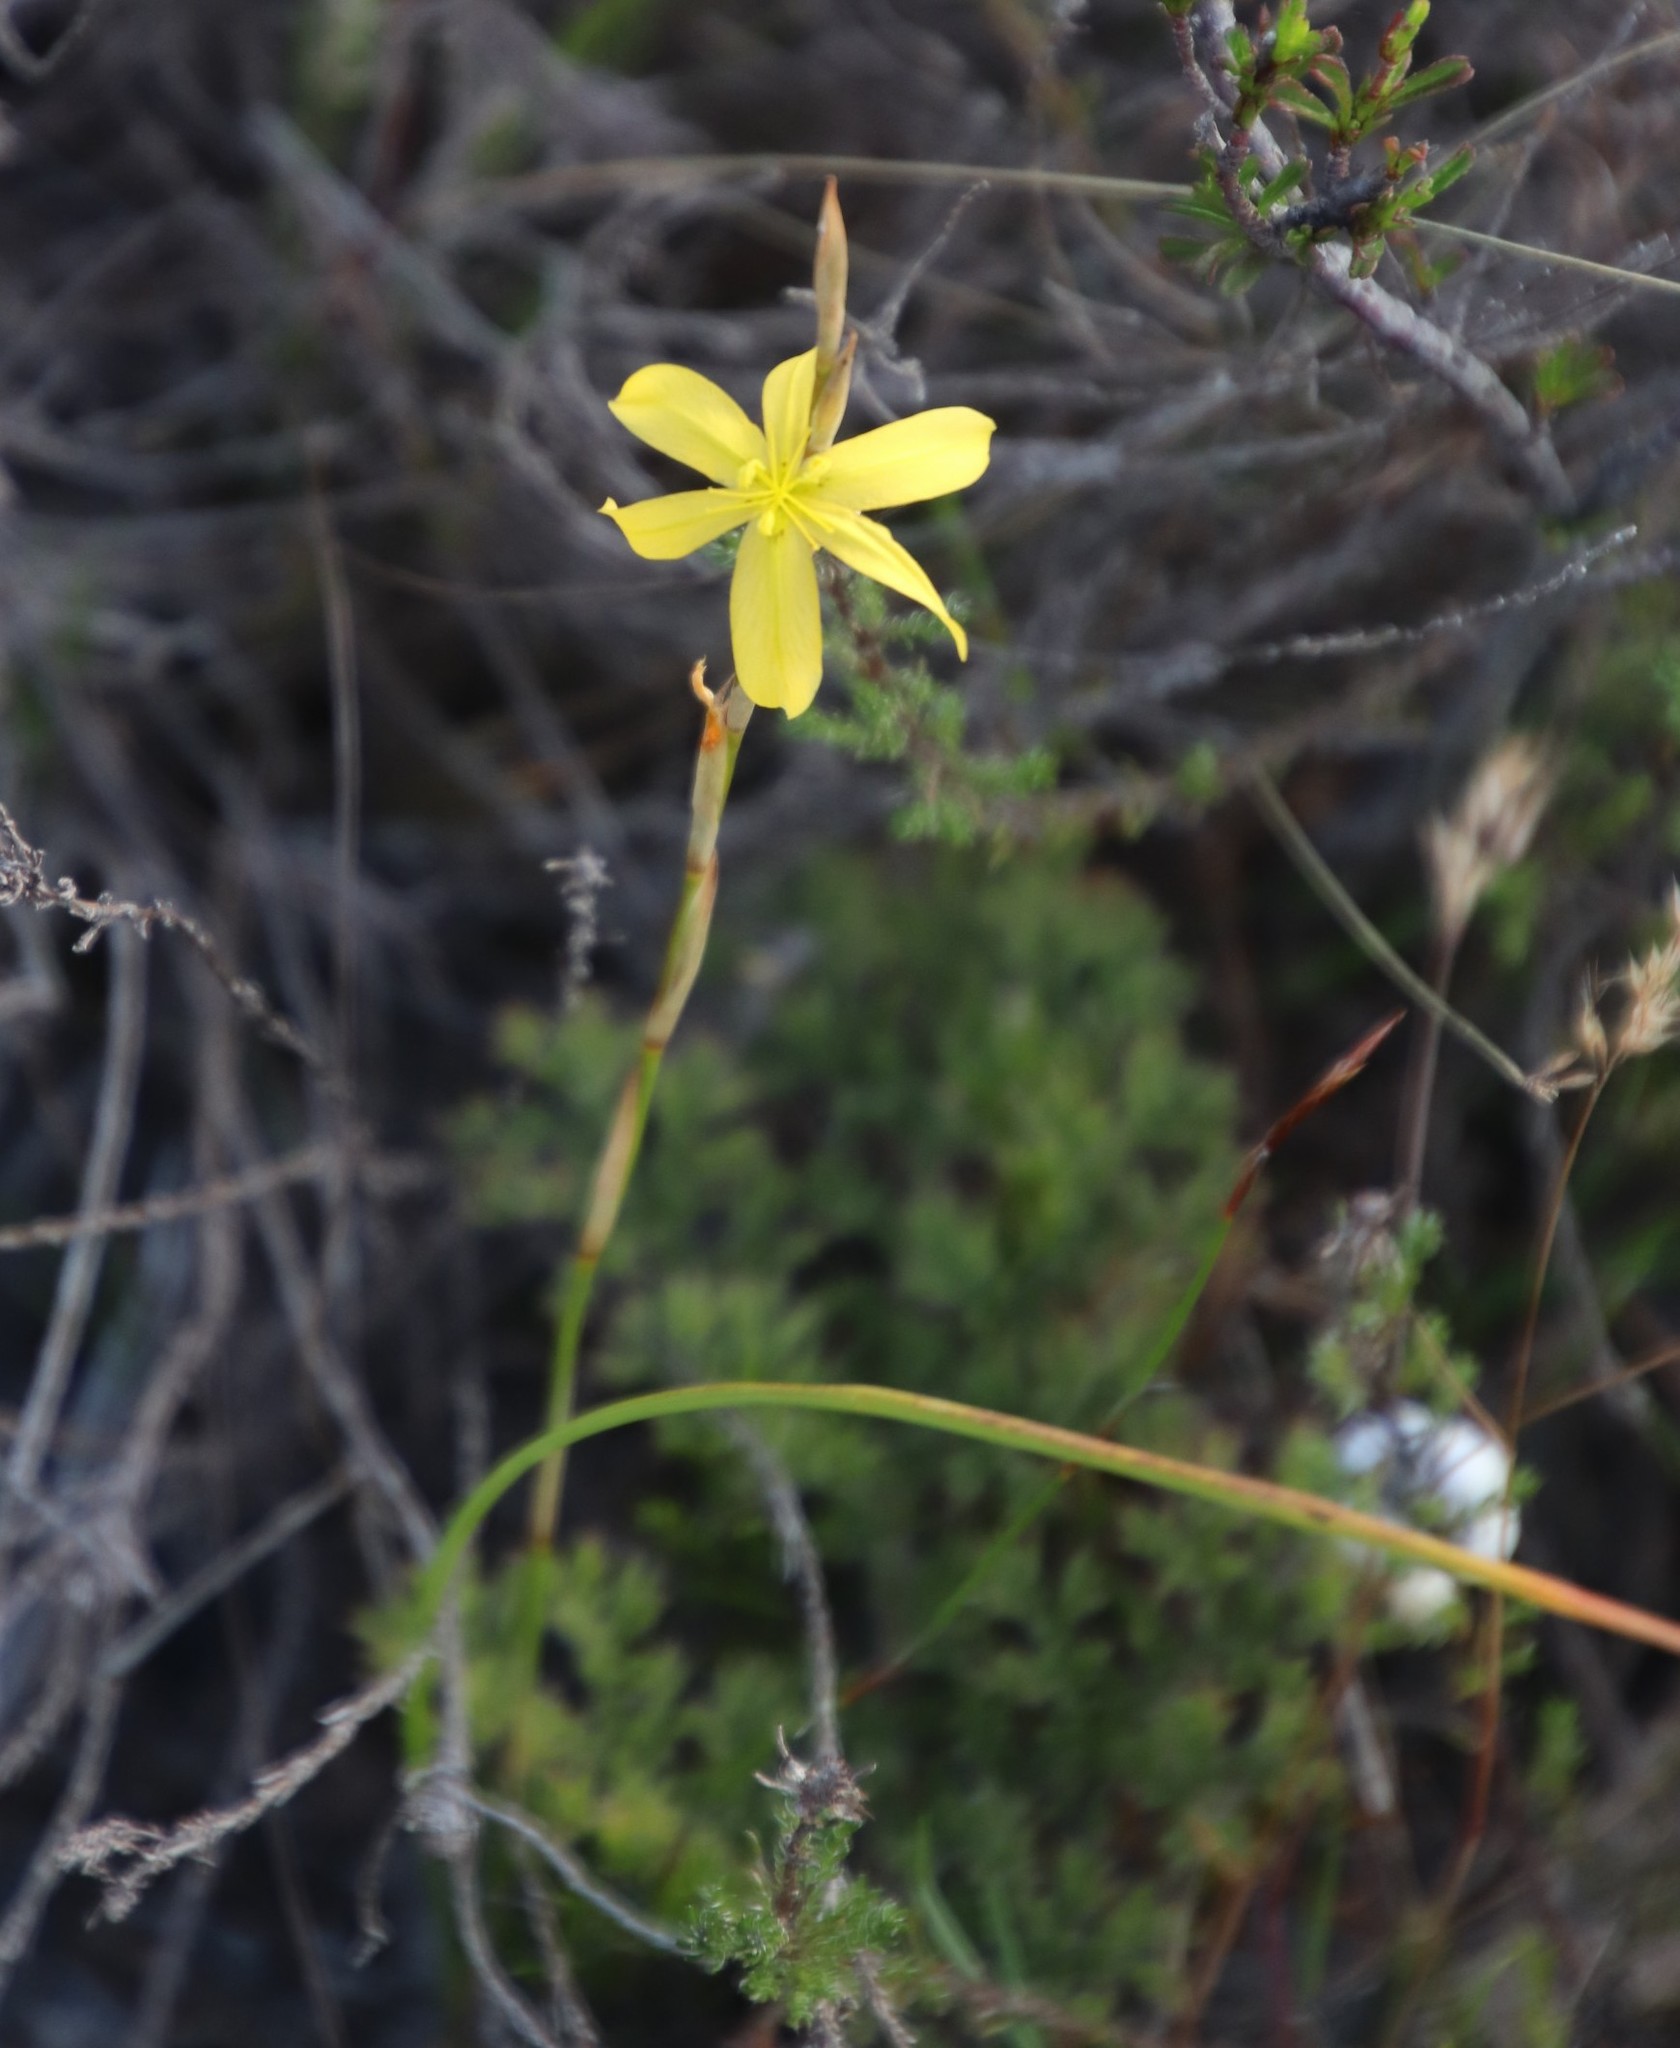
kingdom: Plantae
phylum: Tracheophyta
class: Liliopsida
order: Asparagales
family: Iridaceae
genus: Moraea
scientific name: Moraea virgata
